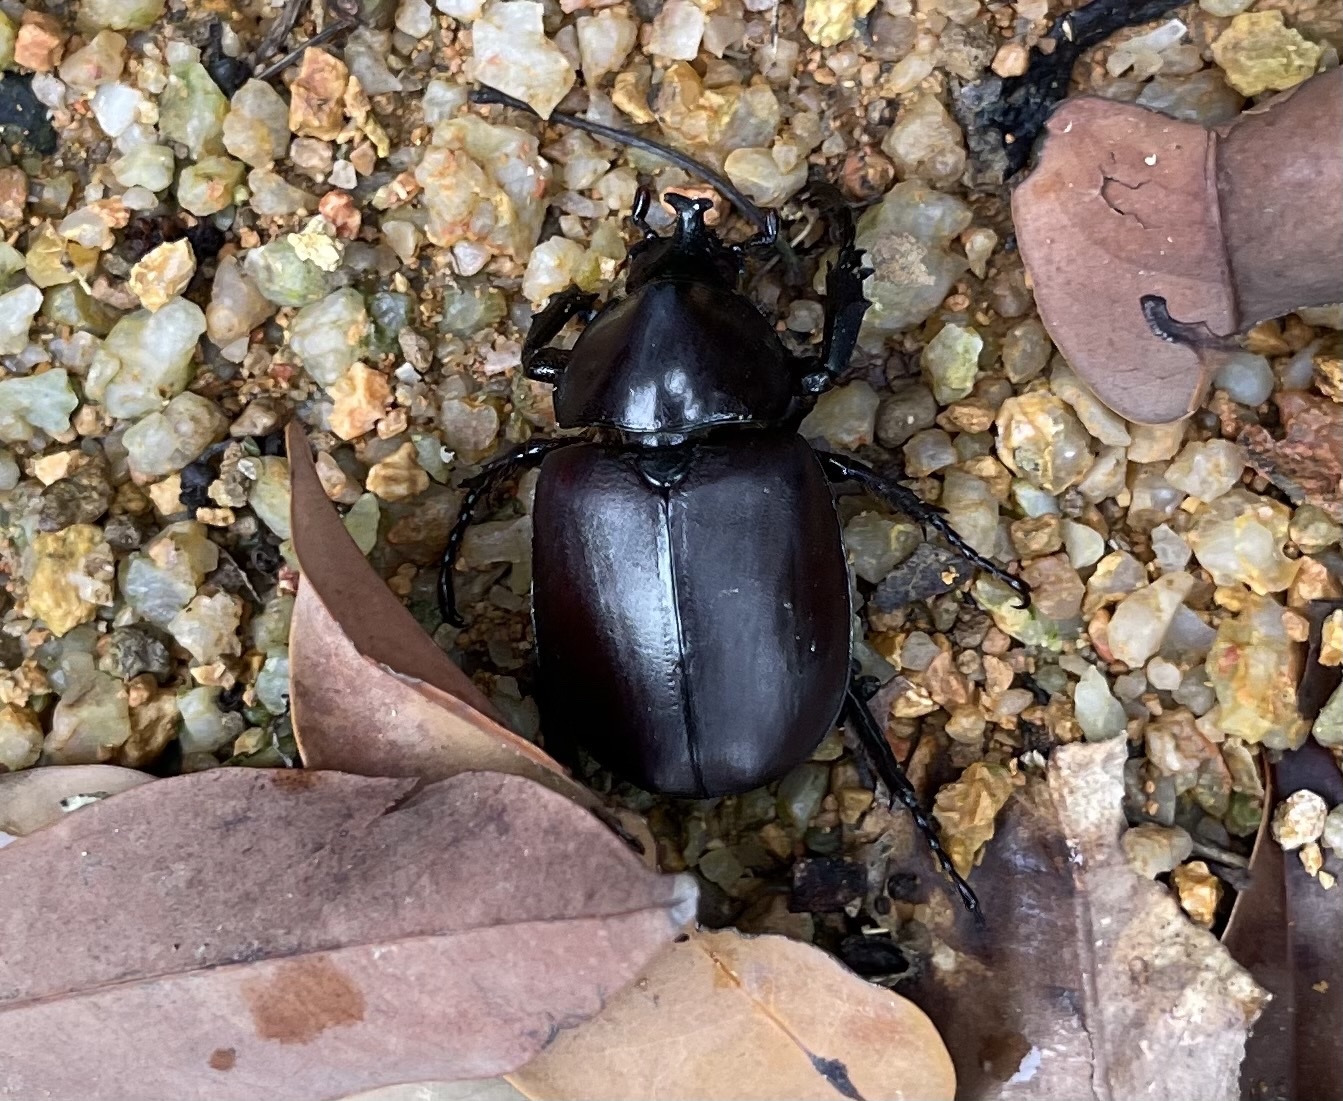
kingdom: Animalia
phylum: Arthropoda
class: Insecta
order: Coleoptera
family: Scarabaeidae
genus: Xylotrupes
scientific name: Xylotrupes socrates
